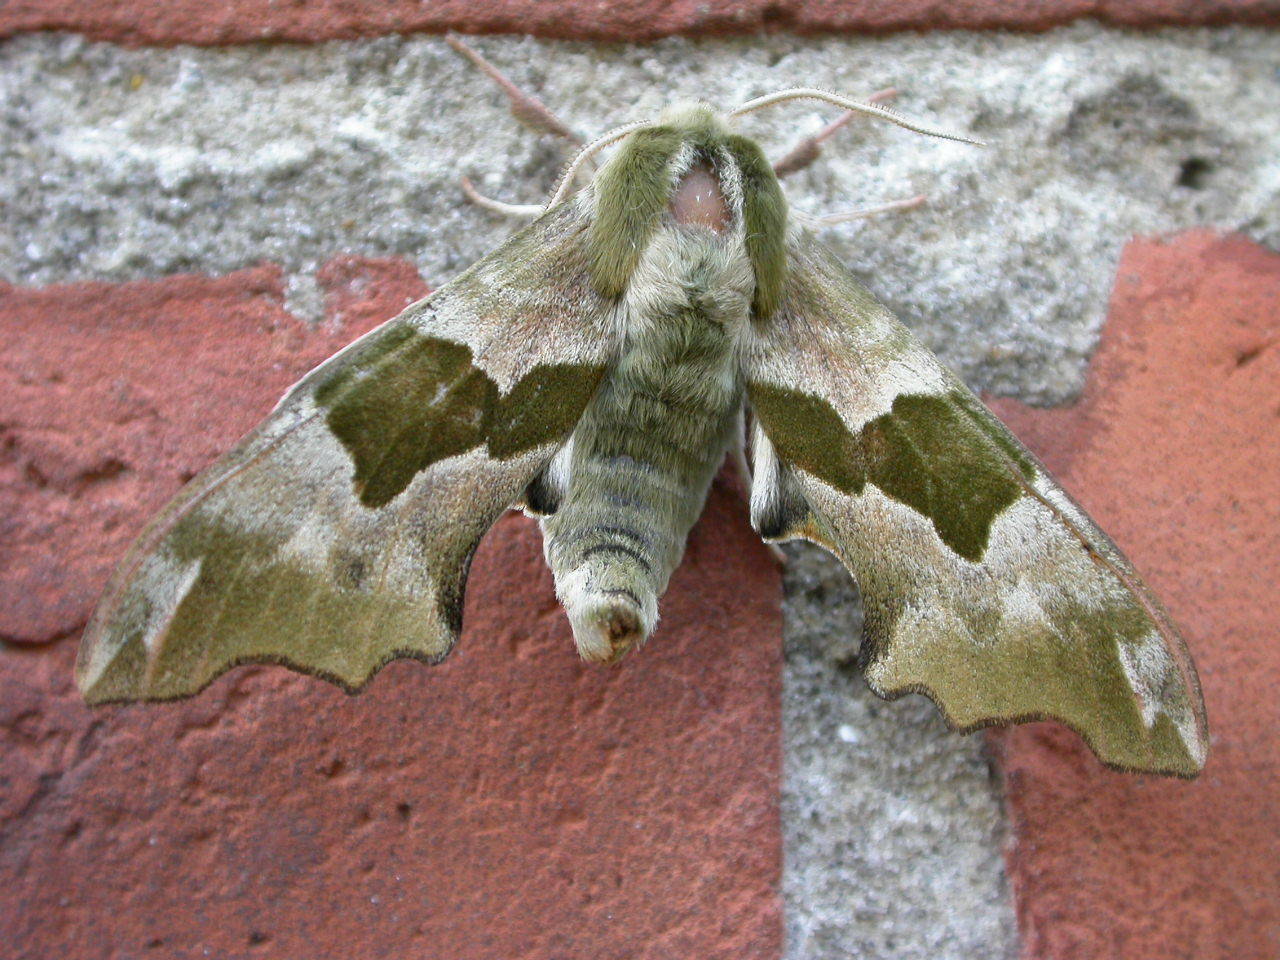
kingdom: Animalia
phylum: Arthropoda
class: Insecta
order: Lepidoptera
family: Sphingidae
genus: Mimas
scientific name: Mimas tiliae
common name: Lime hawk-moth
